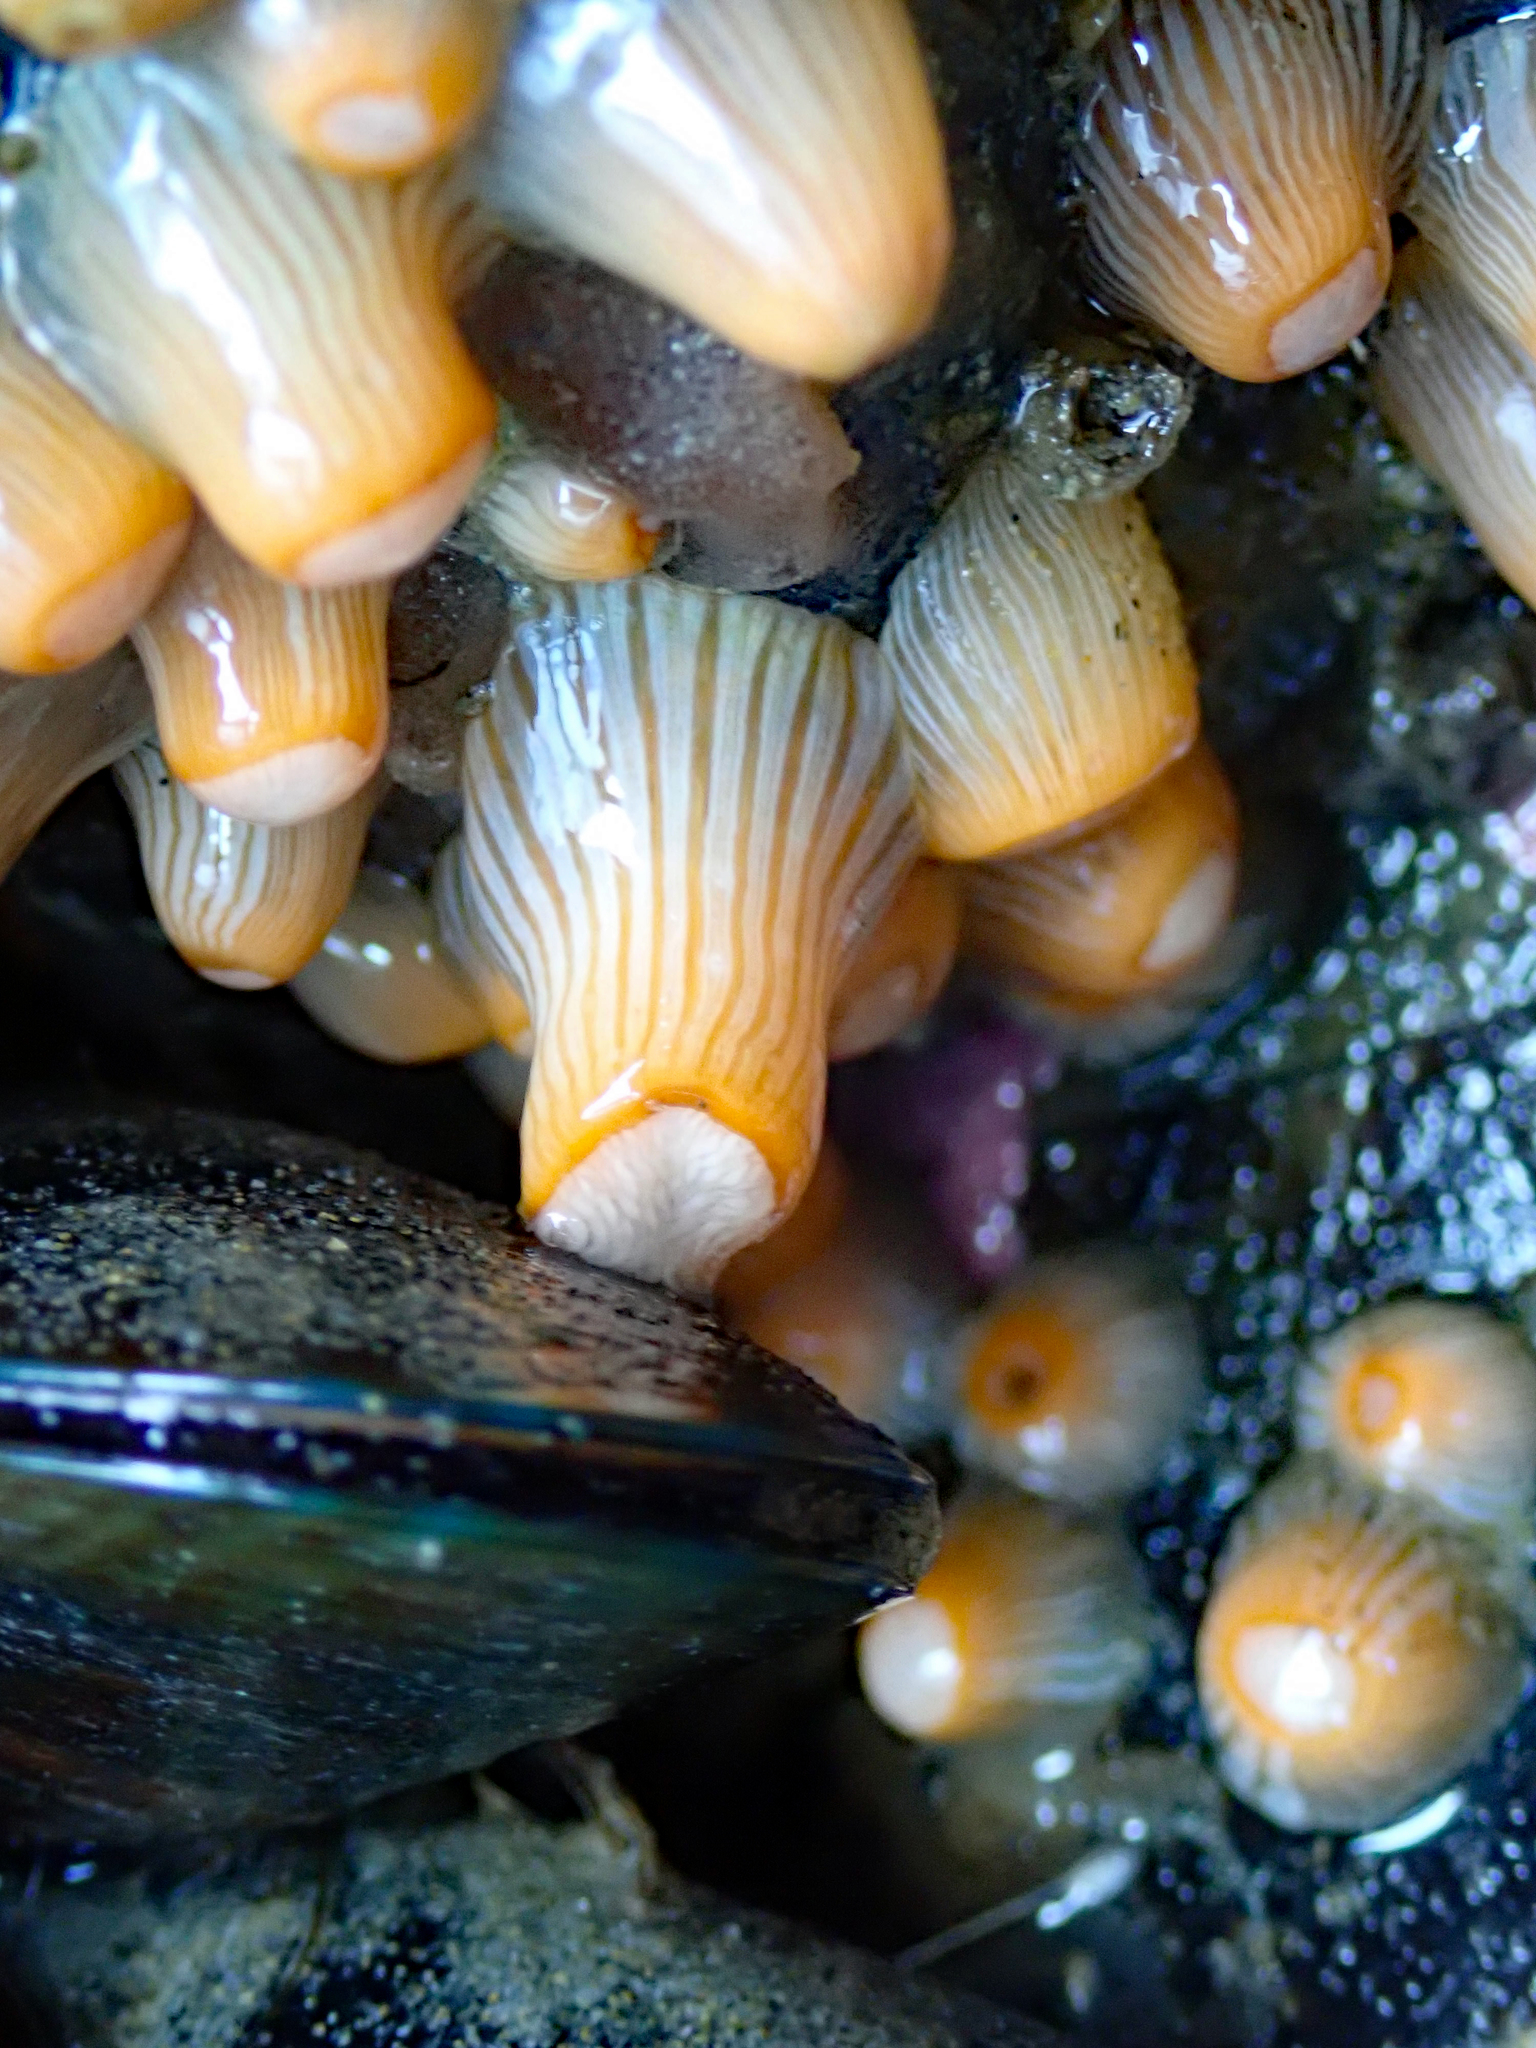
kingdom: Animalia
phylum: Cnidaria
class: Anthozoa
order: Actiniaria
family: Sagartiidae
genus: Anthothoe
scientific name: Anthothoe albocincta
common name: Orange striped anemone
